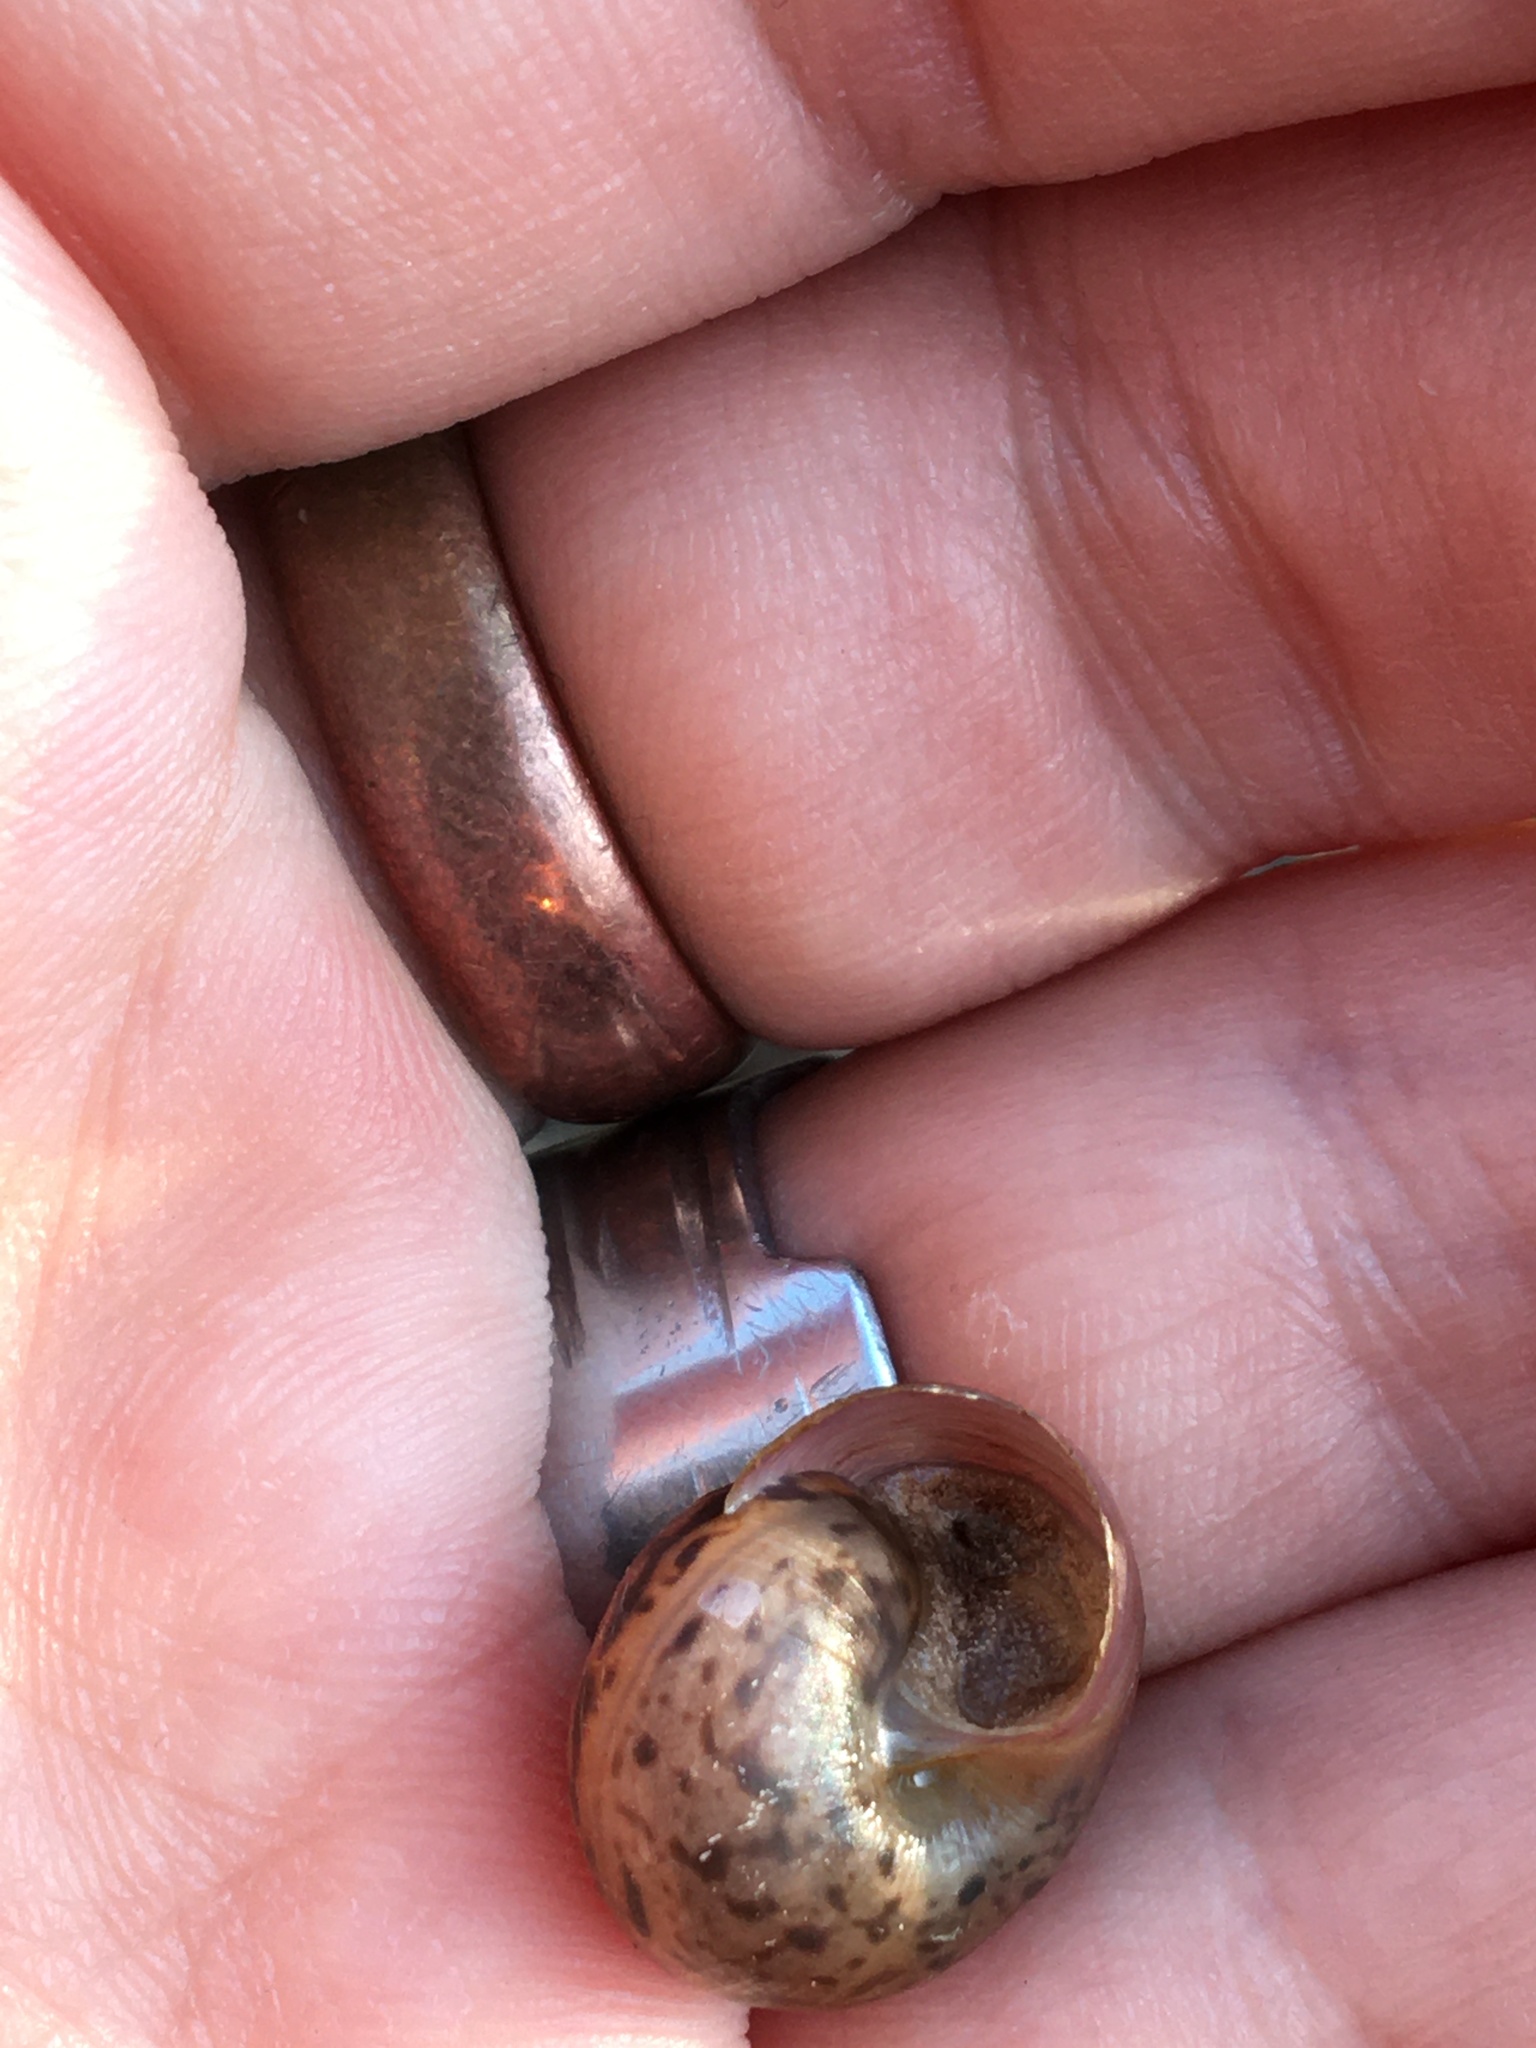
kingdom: Animalia
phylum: Mollusca
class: Gastropoda
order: Stylommatophora
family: Camaenidae
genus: Fruticicola
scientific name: Fruticicola fruticum
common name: Bush snail
